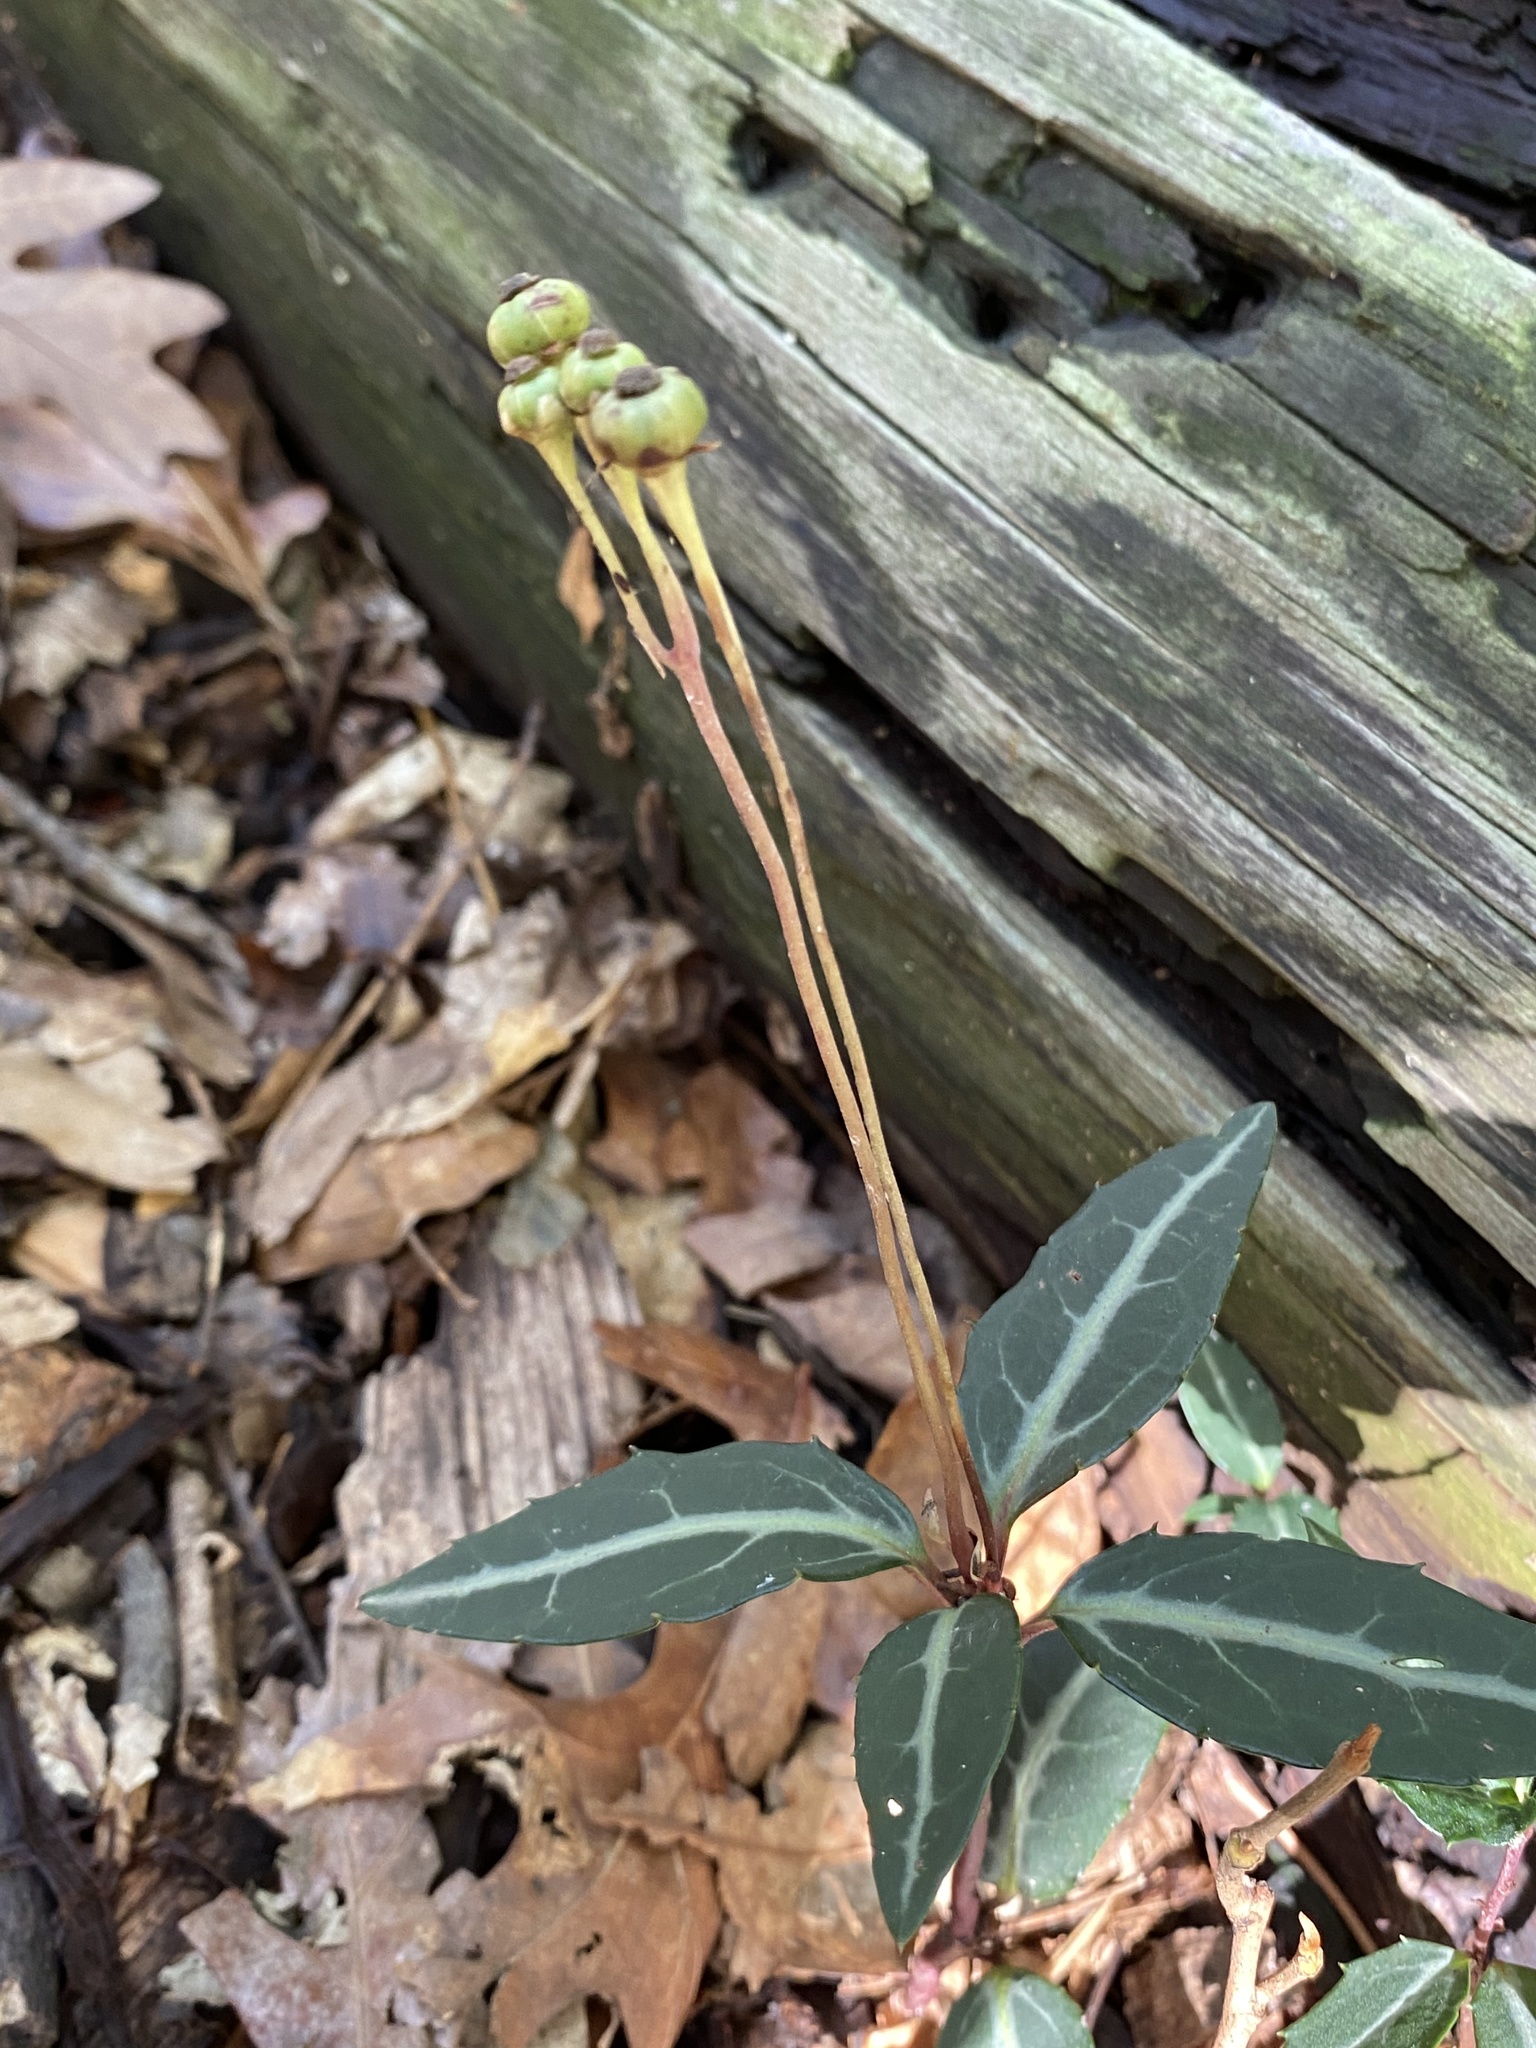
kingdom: Plantae
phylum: Tracheophyta
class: Magnoliopsida
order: Ericales
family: Ericaceae
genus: Chimaphila
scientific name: Chimaphila maculata
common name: Spotted pipsissewa
